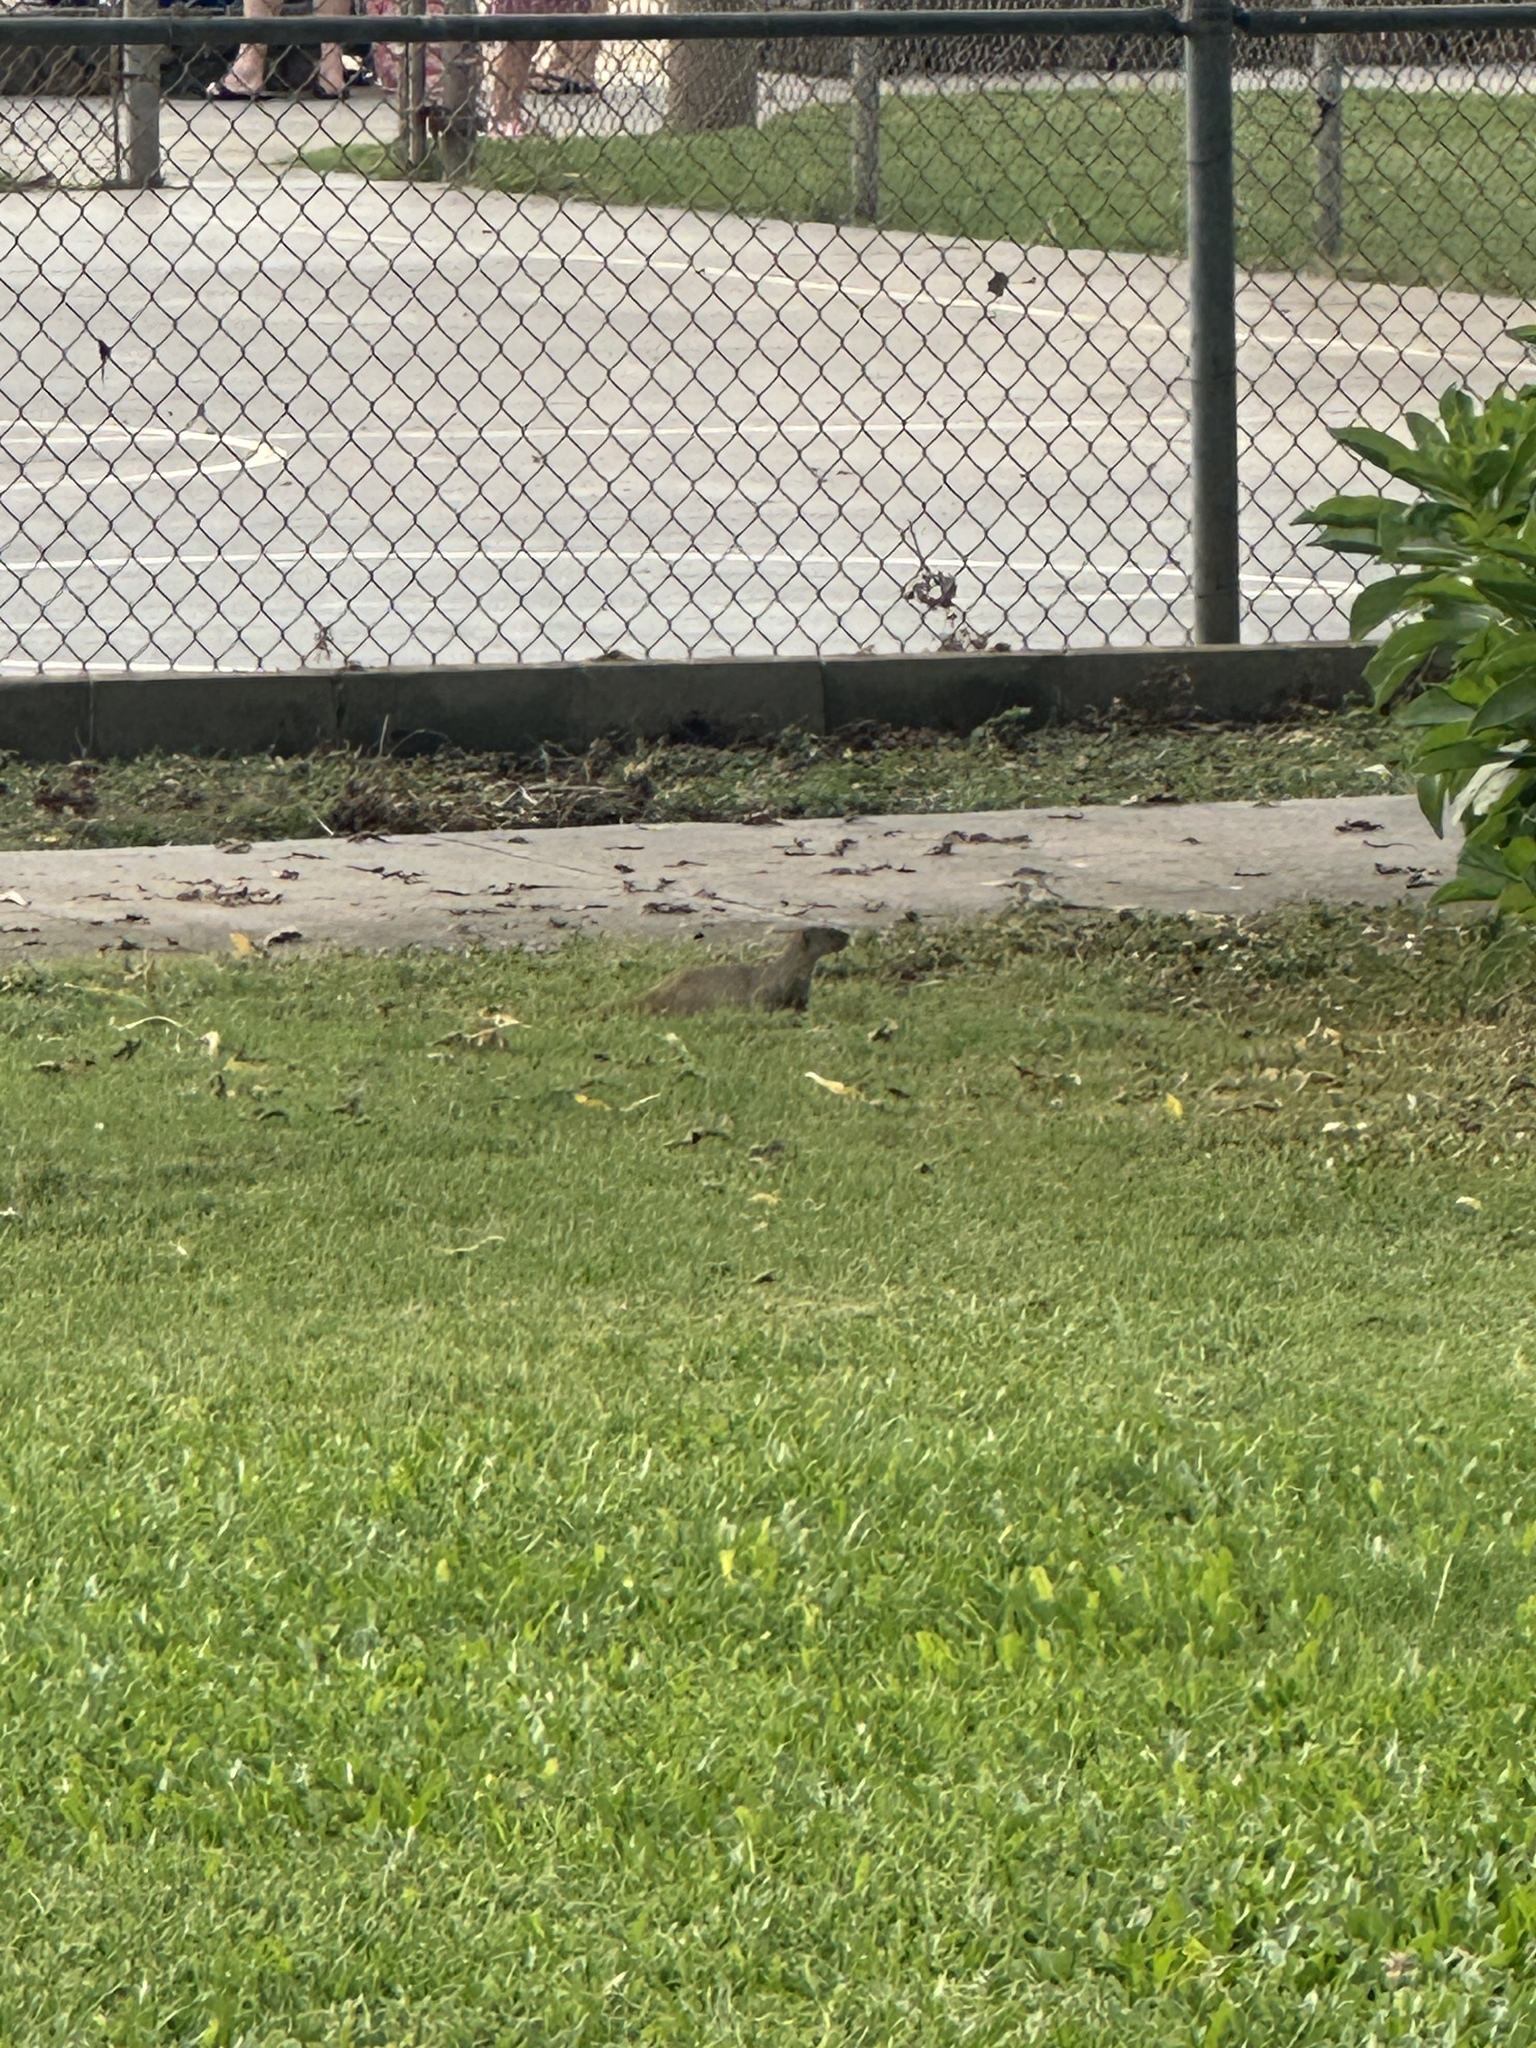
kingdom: Animalia
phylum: Chordata
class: Mammalia
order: Carnivora
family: Herpestidae
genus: Herpestes
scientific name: Herpestes javanicus
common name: Small asian mongoose
